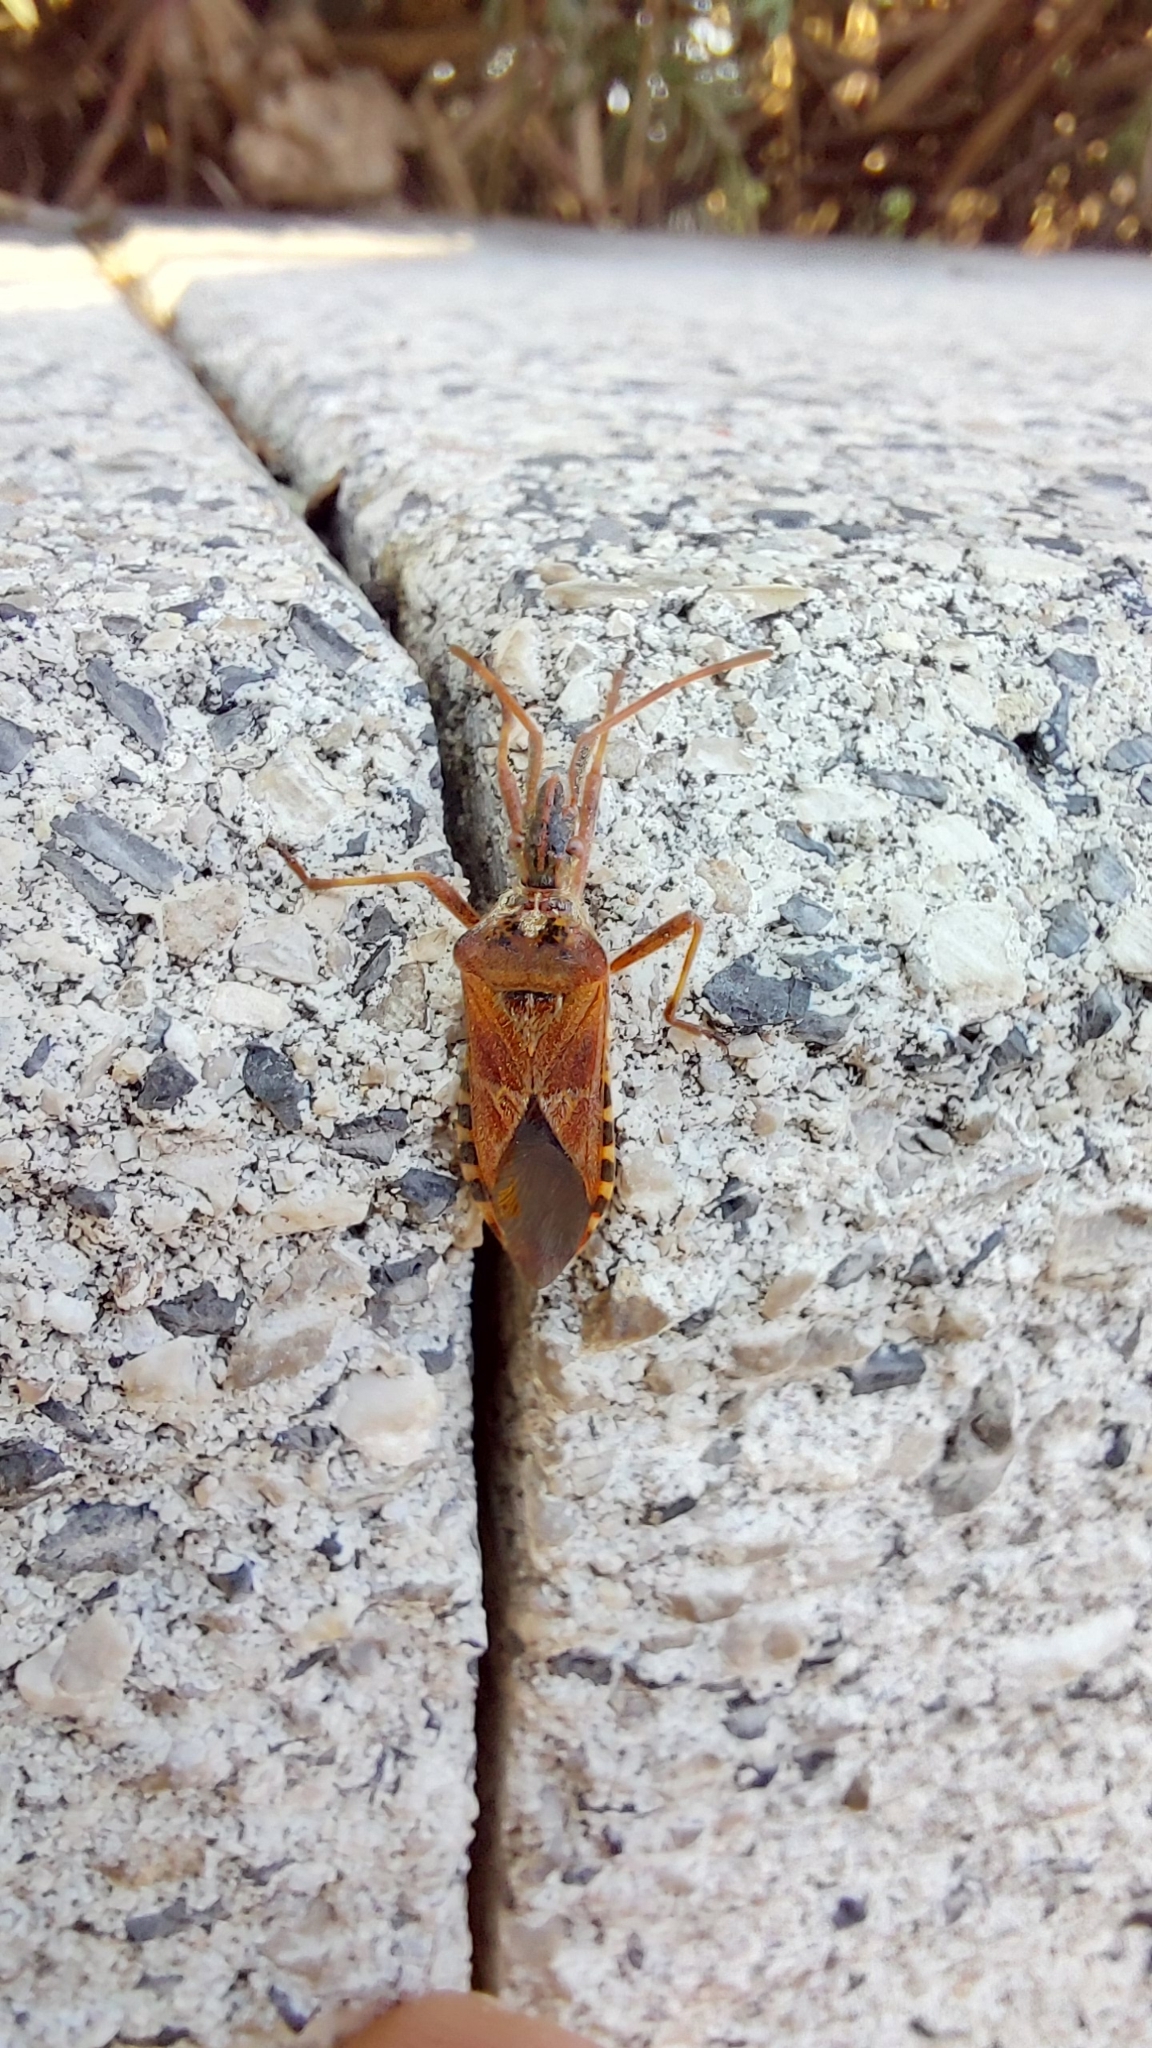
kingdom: Animalia
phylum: Arthropoda
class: Insecta
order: Hemiptera
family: Coreidae
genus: Leptoglossus
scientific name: Leptoglossus occidentalis
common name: Western conifer-seed bug
